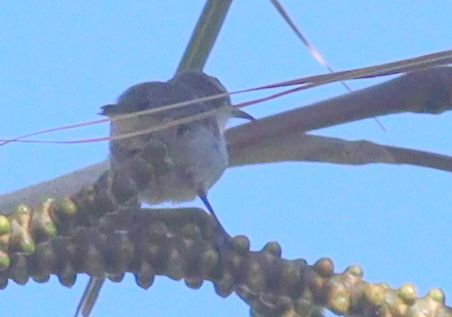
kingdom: Animalia
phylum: Chordata
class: Aves
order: Passeriformes
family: Nectariniidae
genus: Anthreptes
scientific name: Anthreptes orientalis
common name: Eastern violet-backed sunbird
